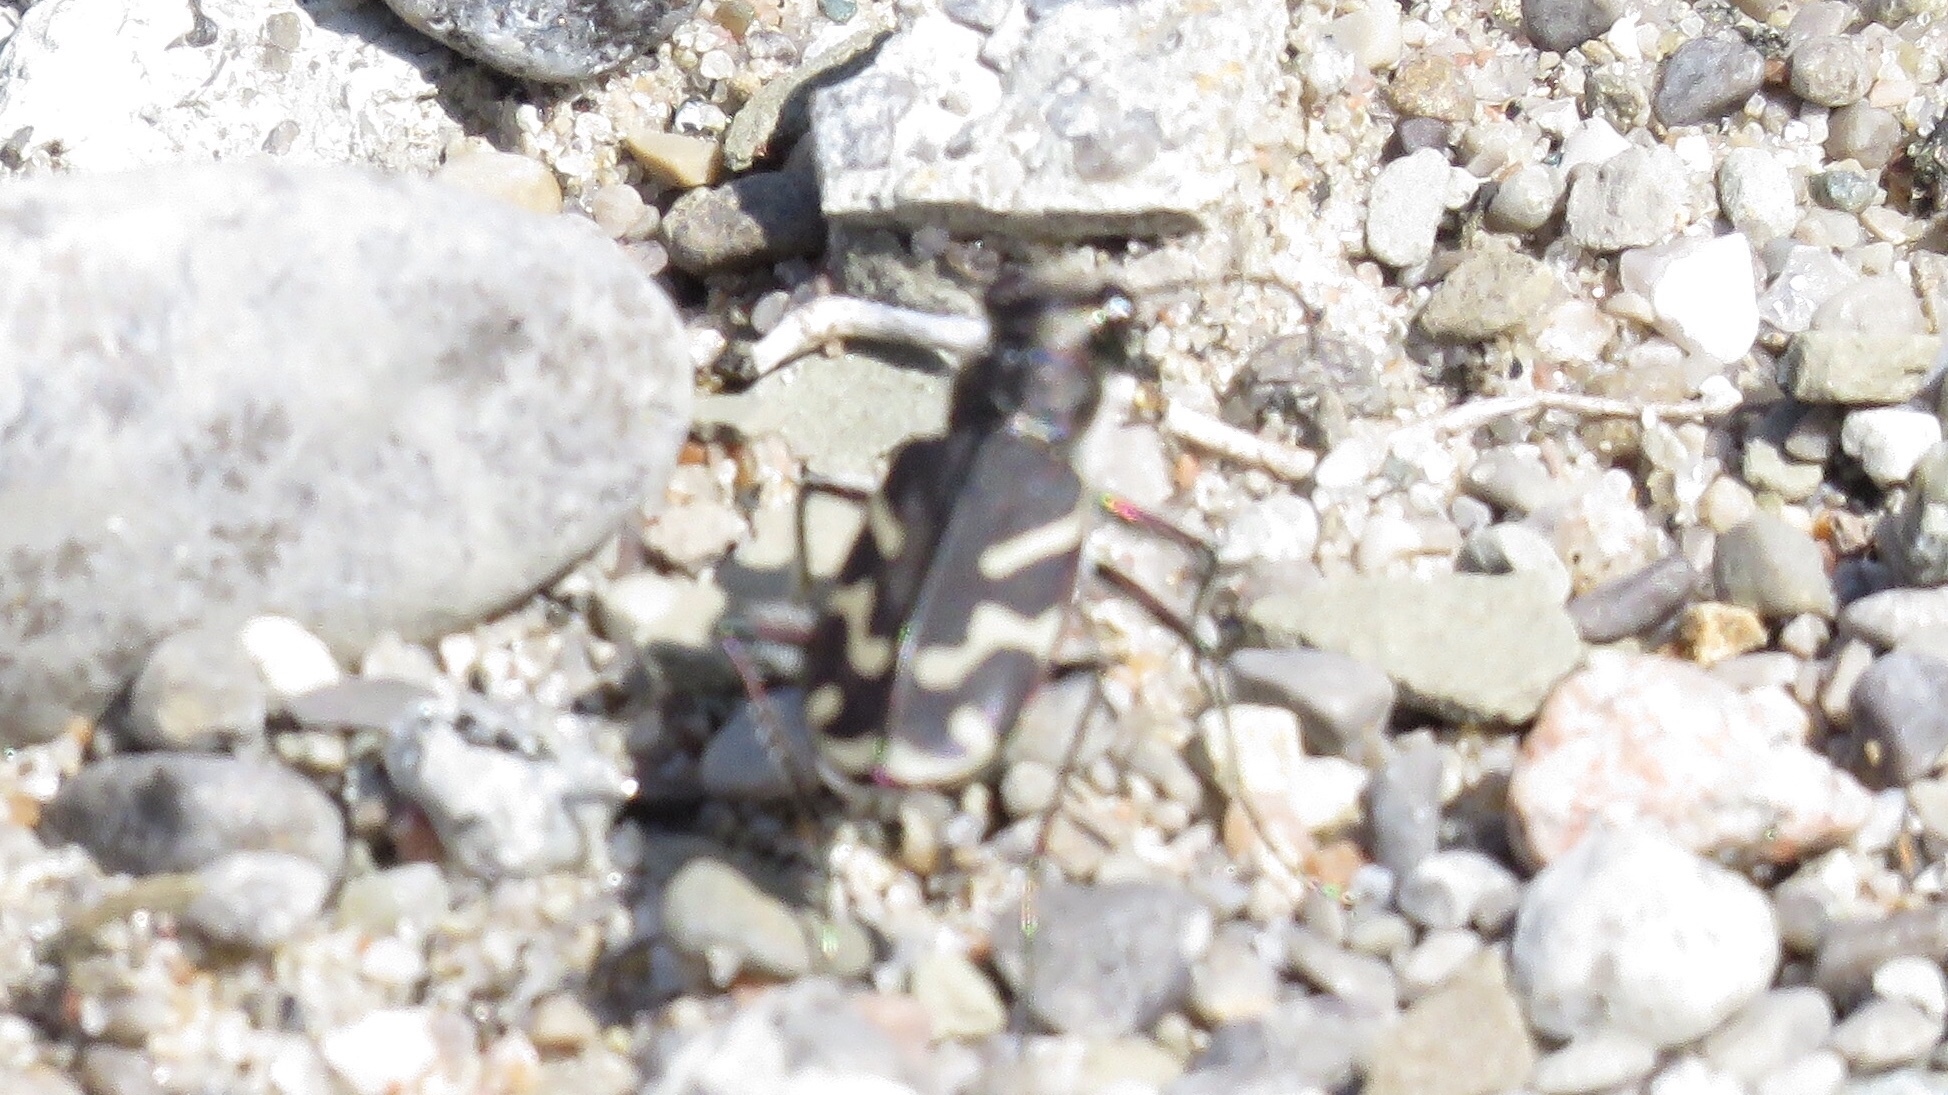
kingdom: Animalia
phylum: Arthropoda
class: Insecta
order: Coleoptera
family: Carabidae
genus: Cicindela
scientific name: Cicindela tranquebarica
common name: Oblique-lined tiger beetle
